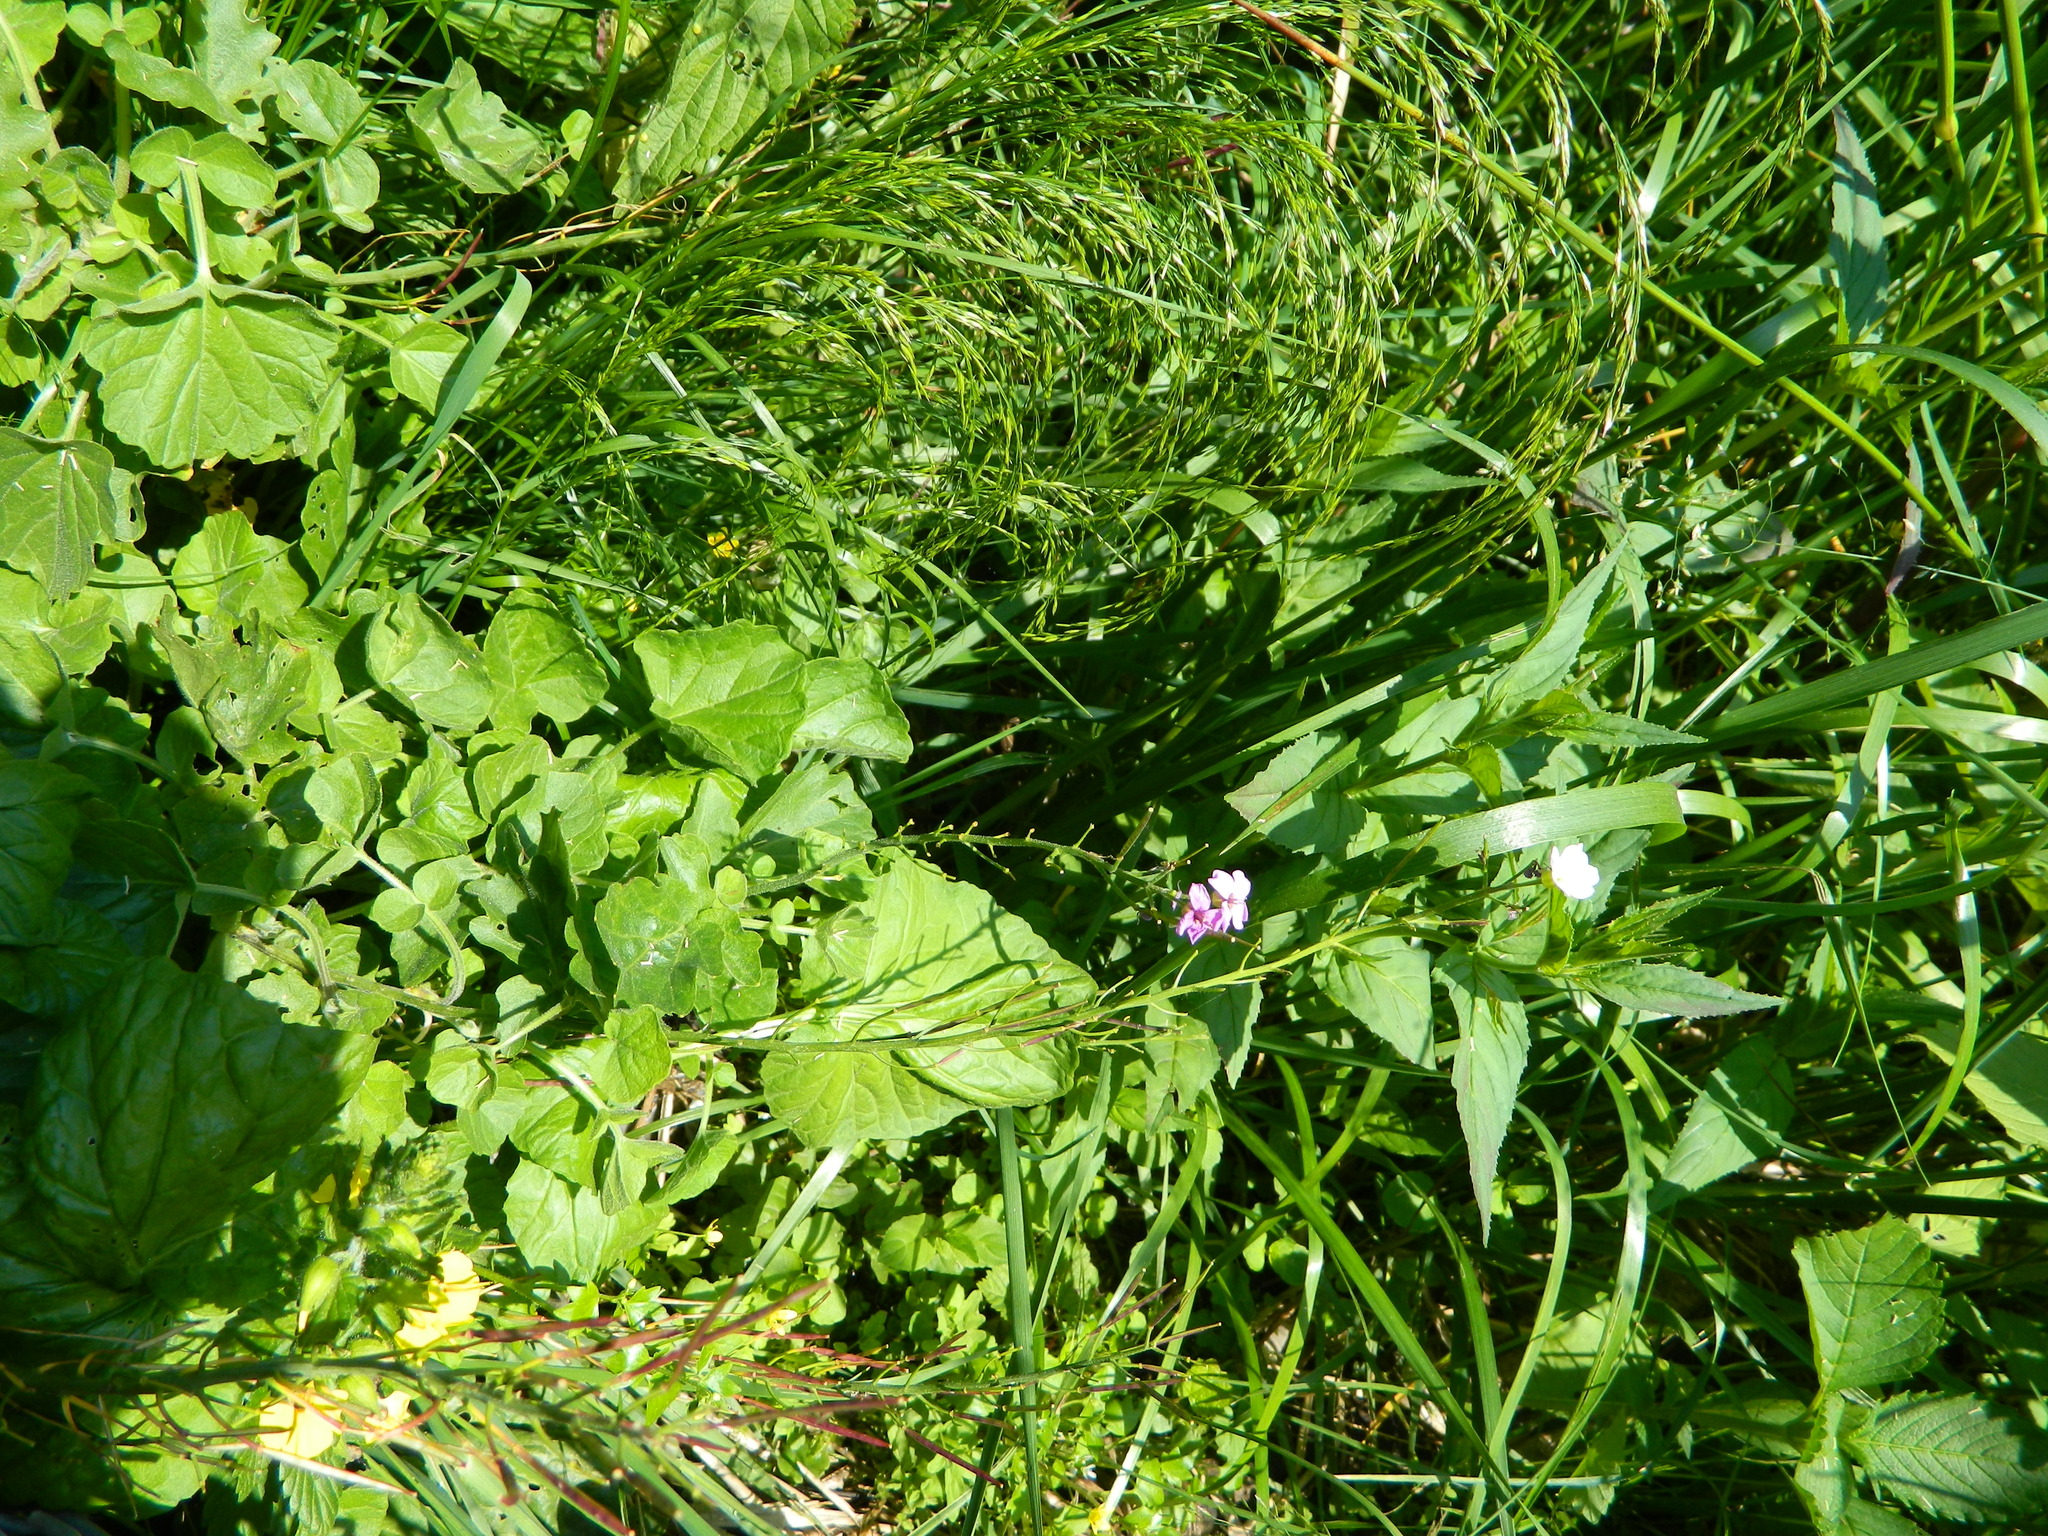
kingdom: Plantae
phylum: Tracheophyta
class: Magnoliopsida
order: Brassicales
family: Brassicaceae
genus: Cardamine
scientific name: Cardamine seidlitziana
